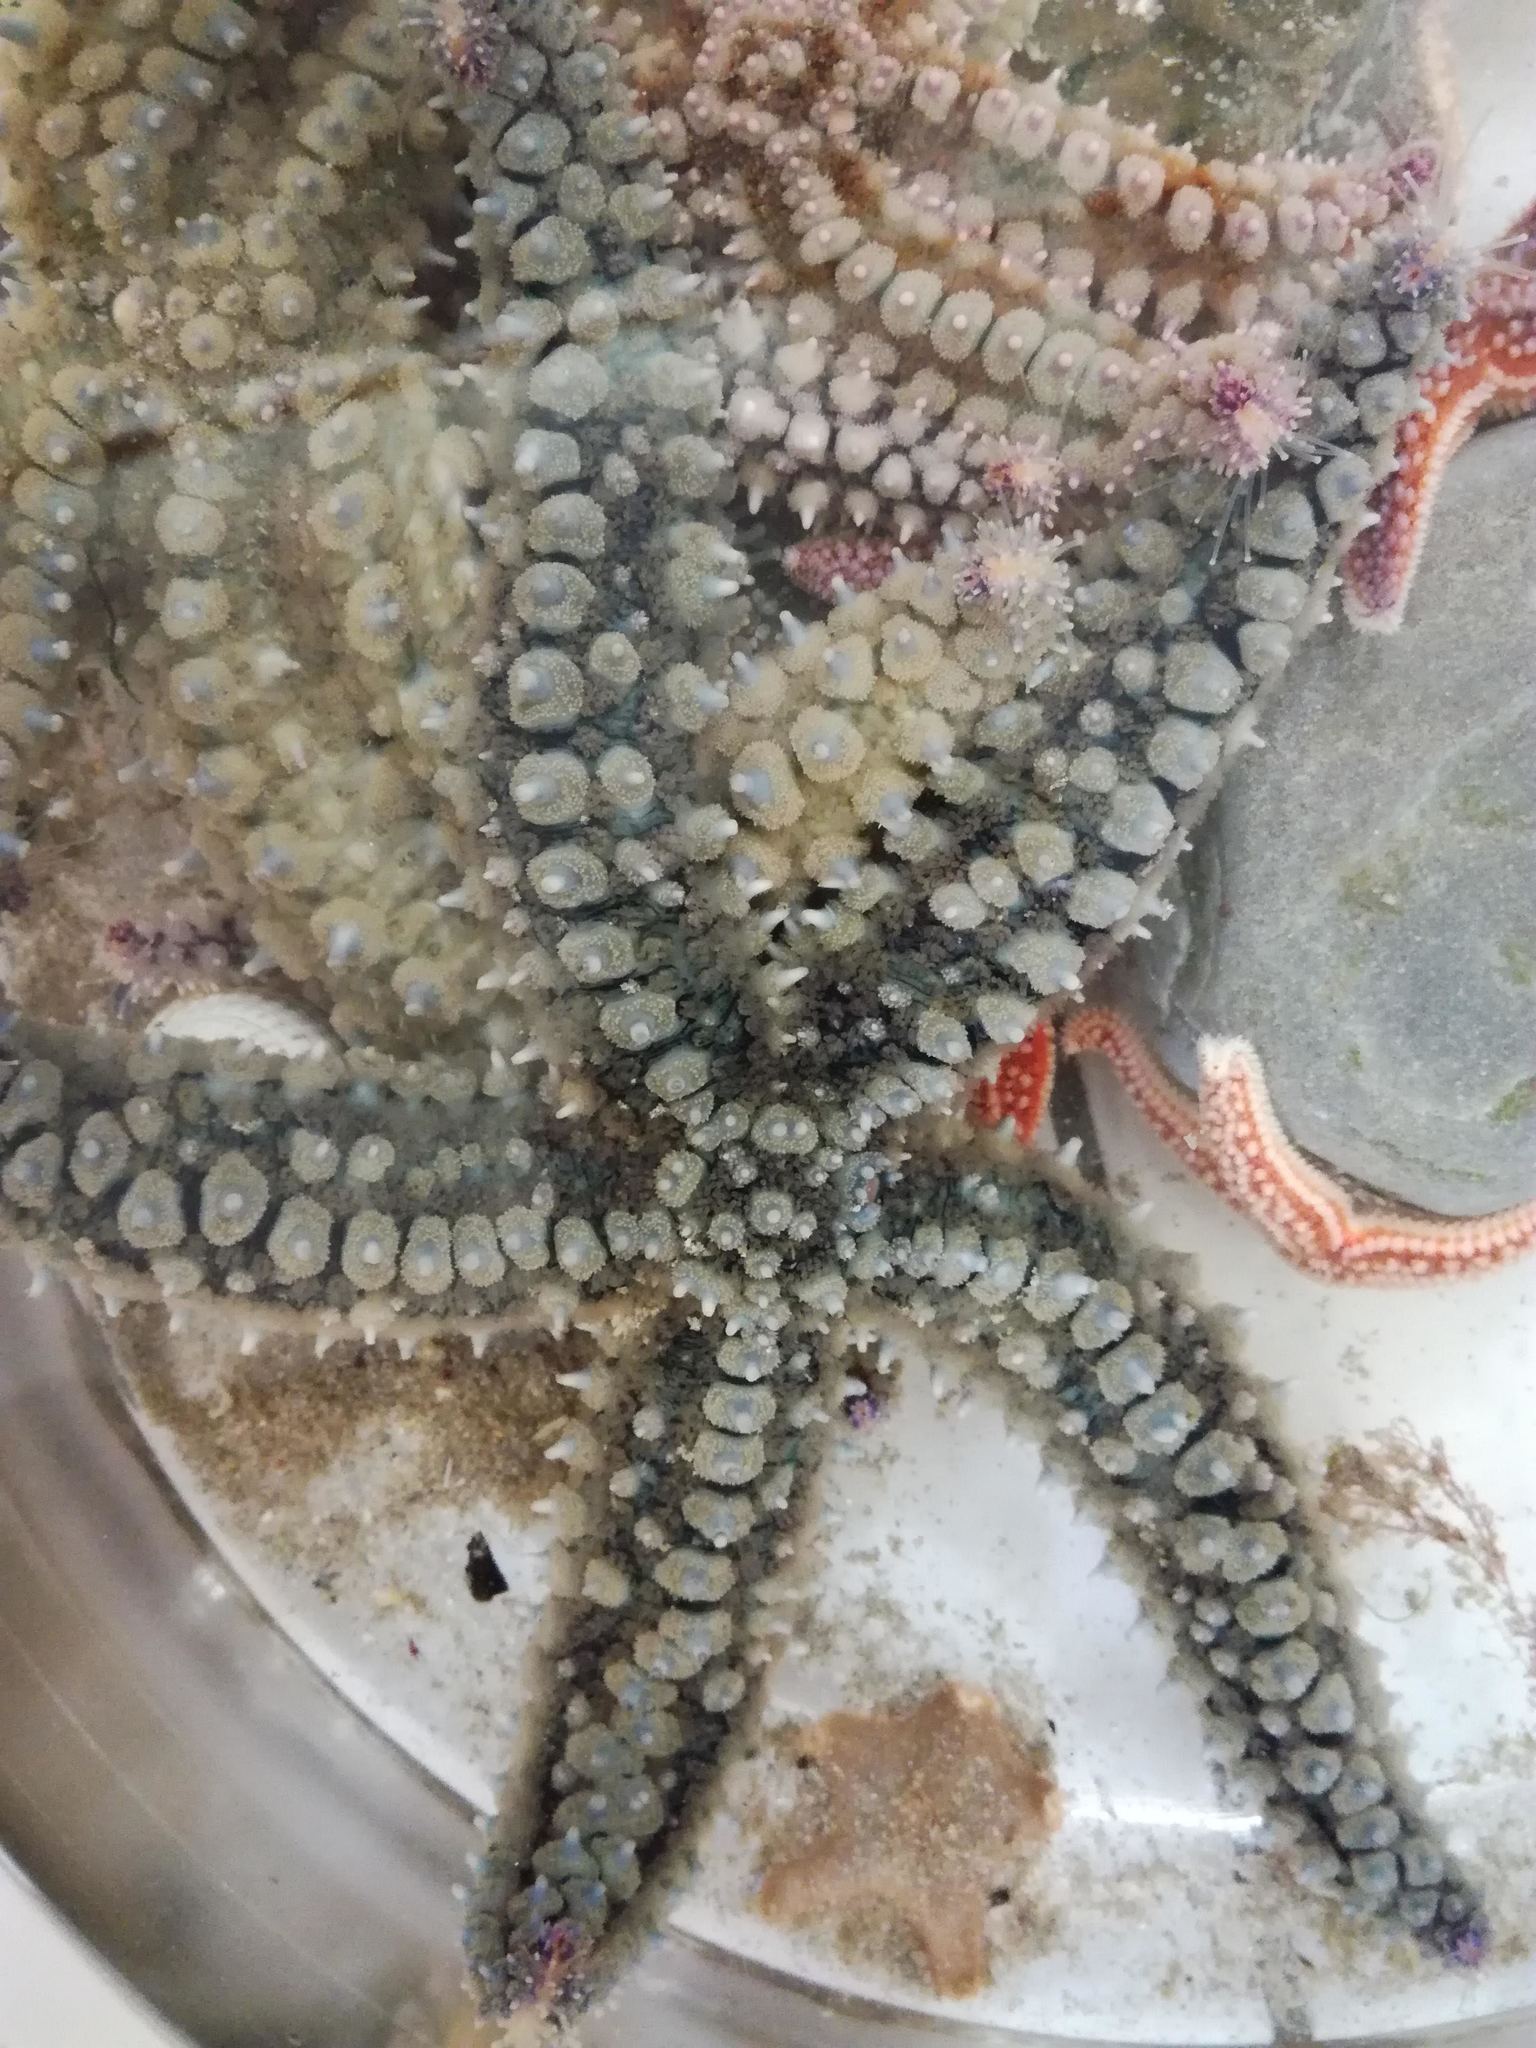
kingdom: Animalia
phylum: Echinodermata
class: Asteroidea
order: Forcipulatida
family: Asteriidae
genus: Marthasterias
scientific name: Marthasterias glacialis
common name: Spiny starfish
